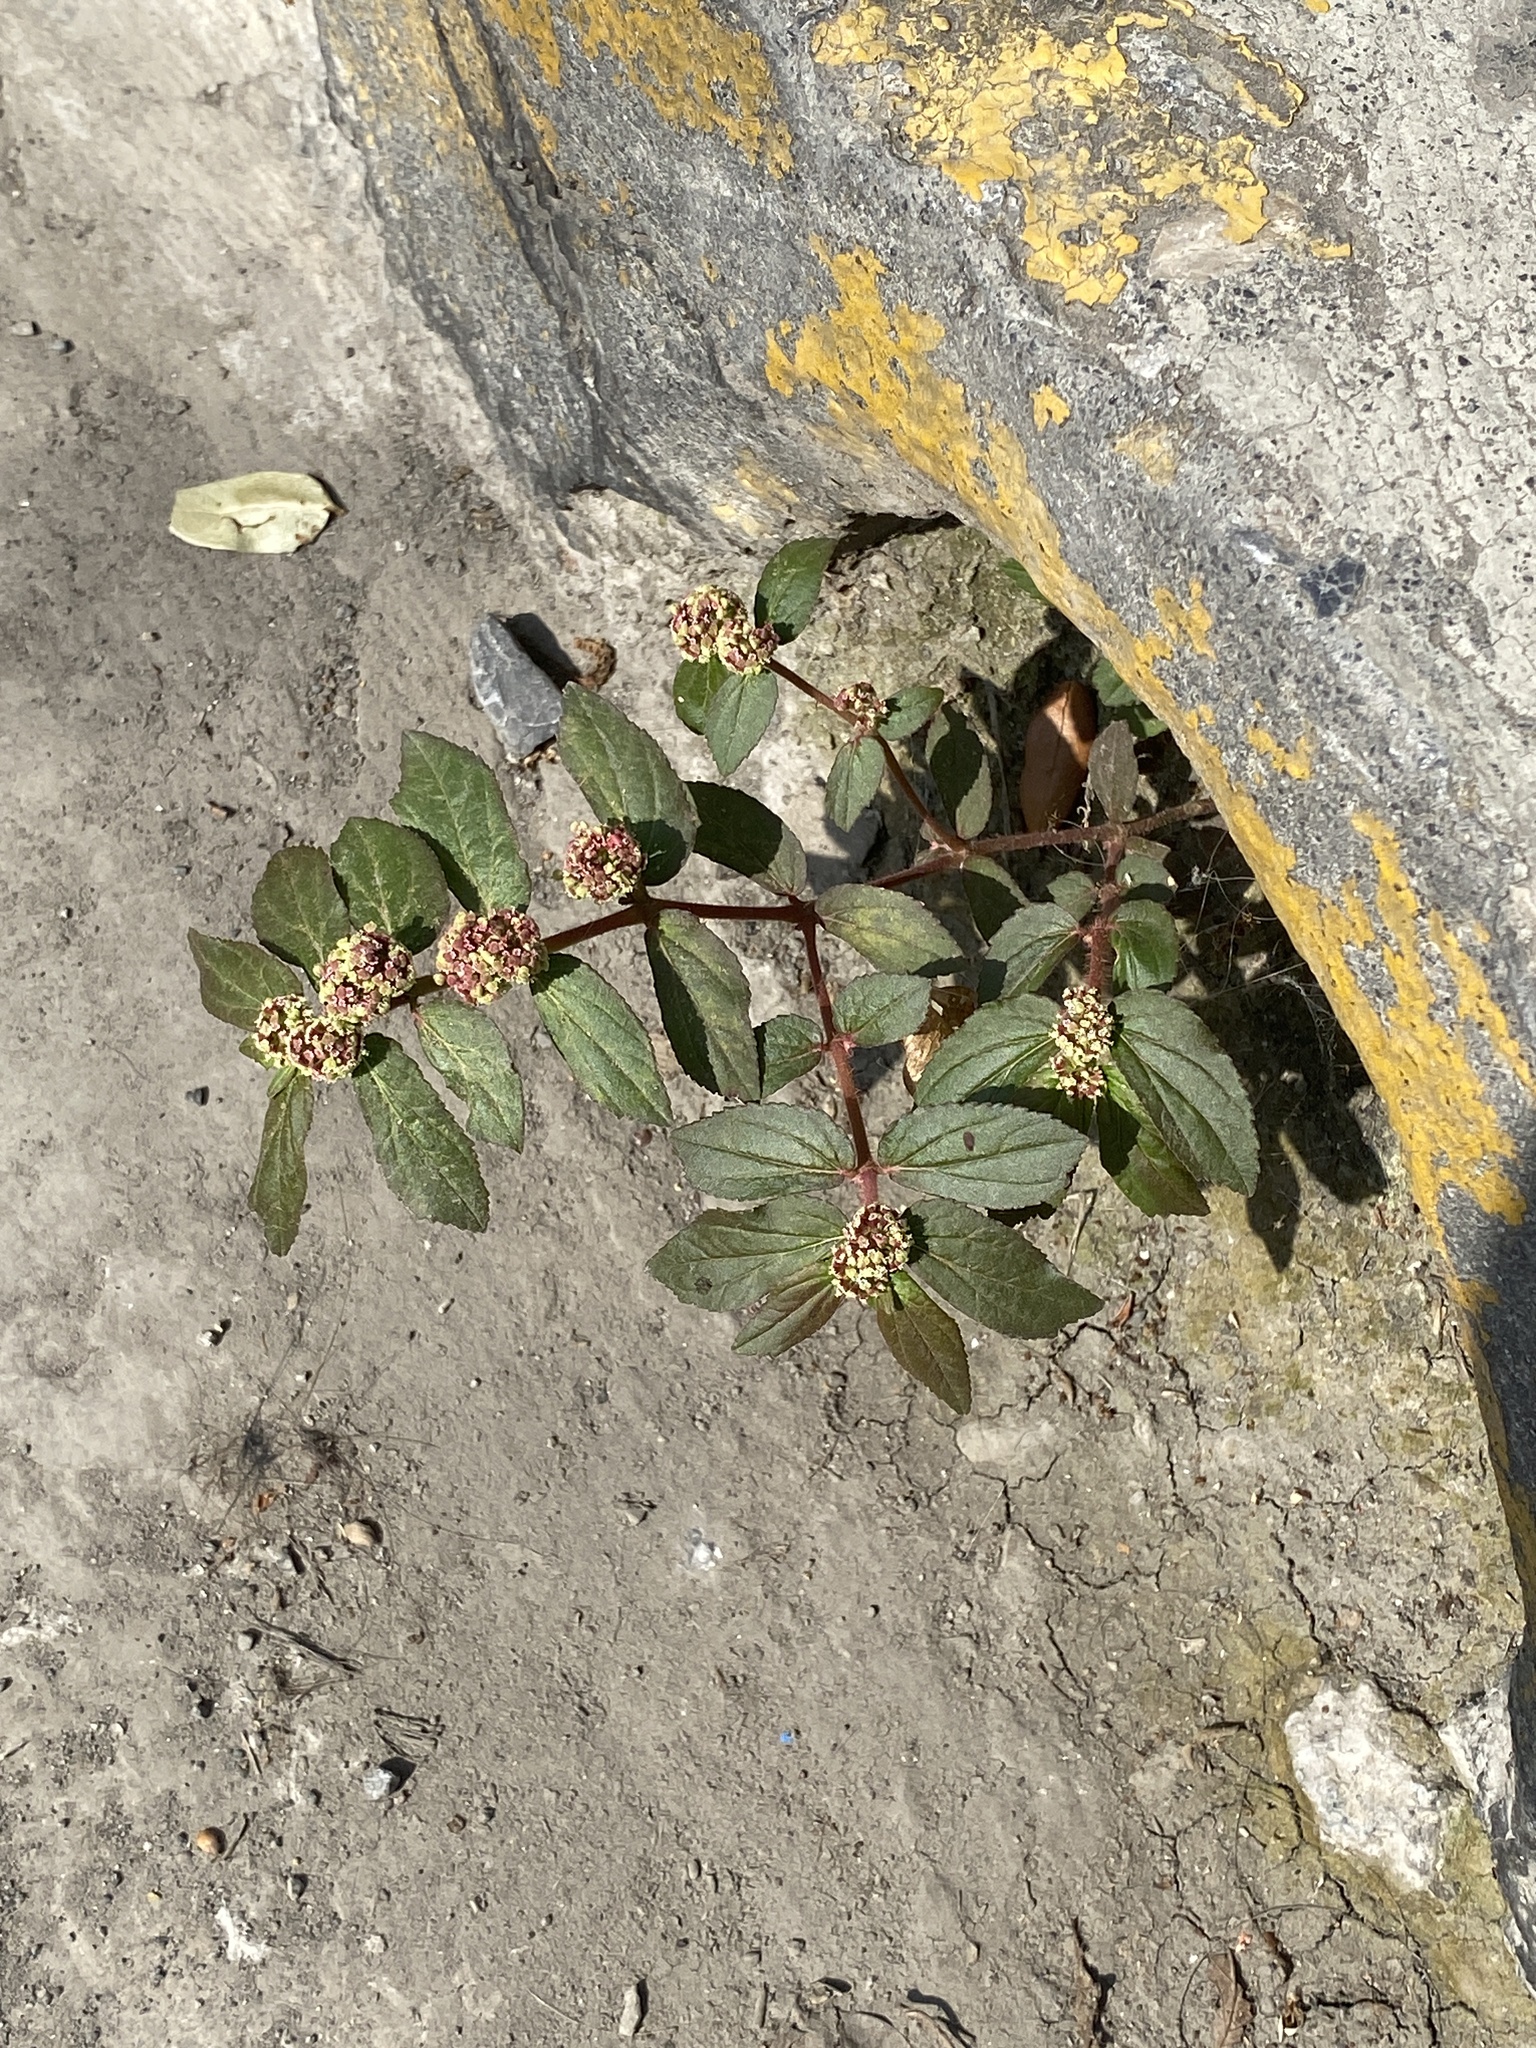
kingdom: Plantae
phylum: Tracheophyta
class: Magnoliopsida
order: Malpighiales
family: Euphorbiaceae
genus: Euphorbia
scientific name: Euphorbia hirta
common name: Pillpod sandmat
